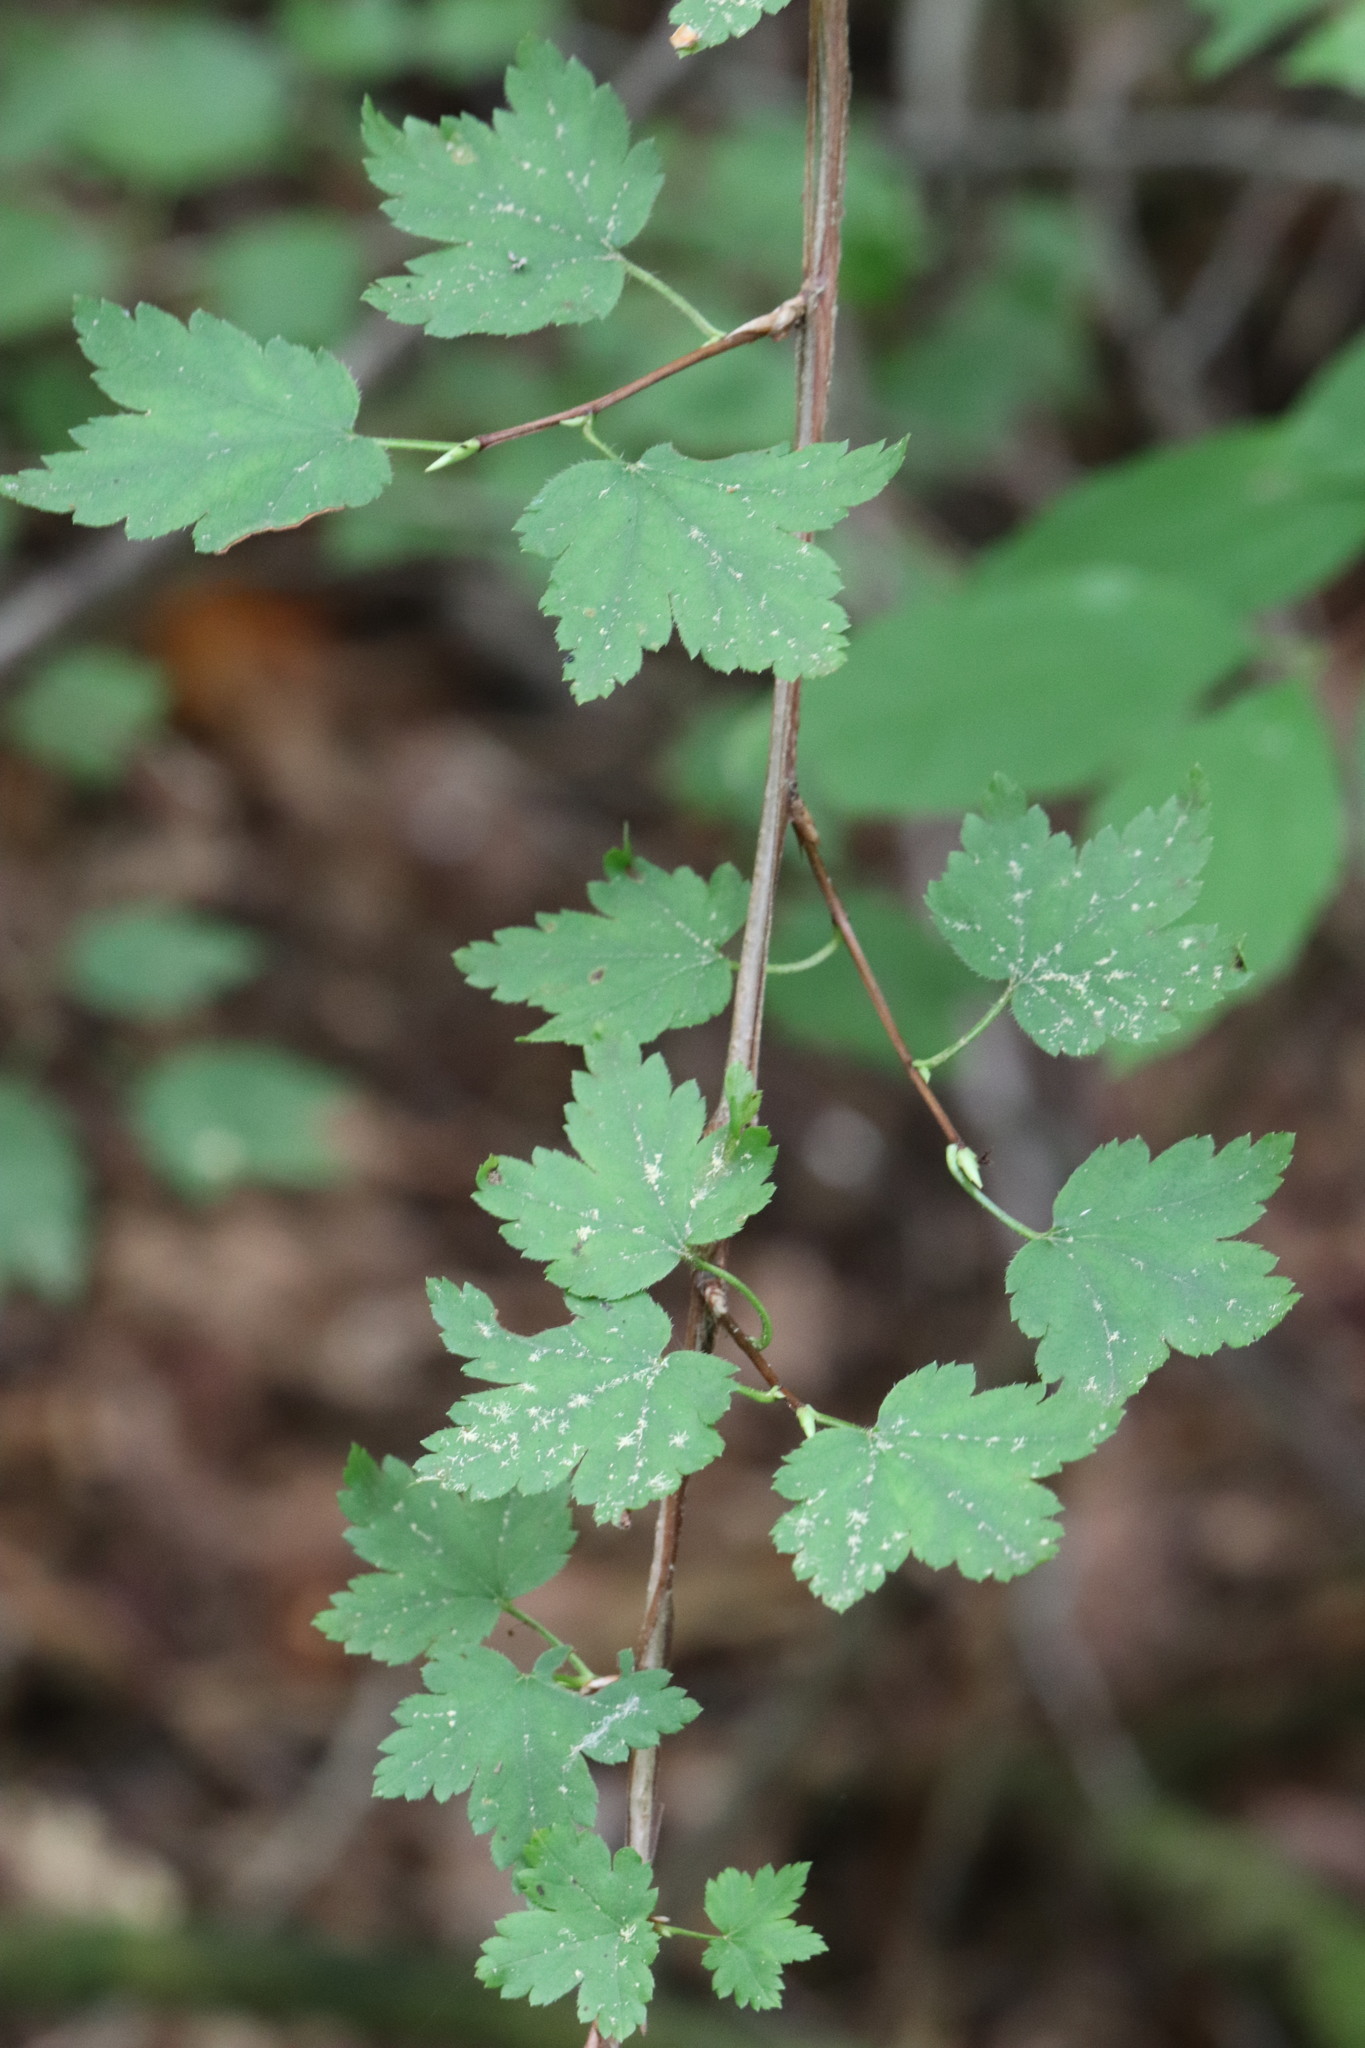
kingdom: Plantae
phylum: Tracheophyta
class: Magnoliopsida
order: Saxifragales
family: Grossulariaceae
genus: Ribes
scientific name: Ribes maximoviczianum
